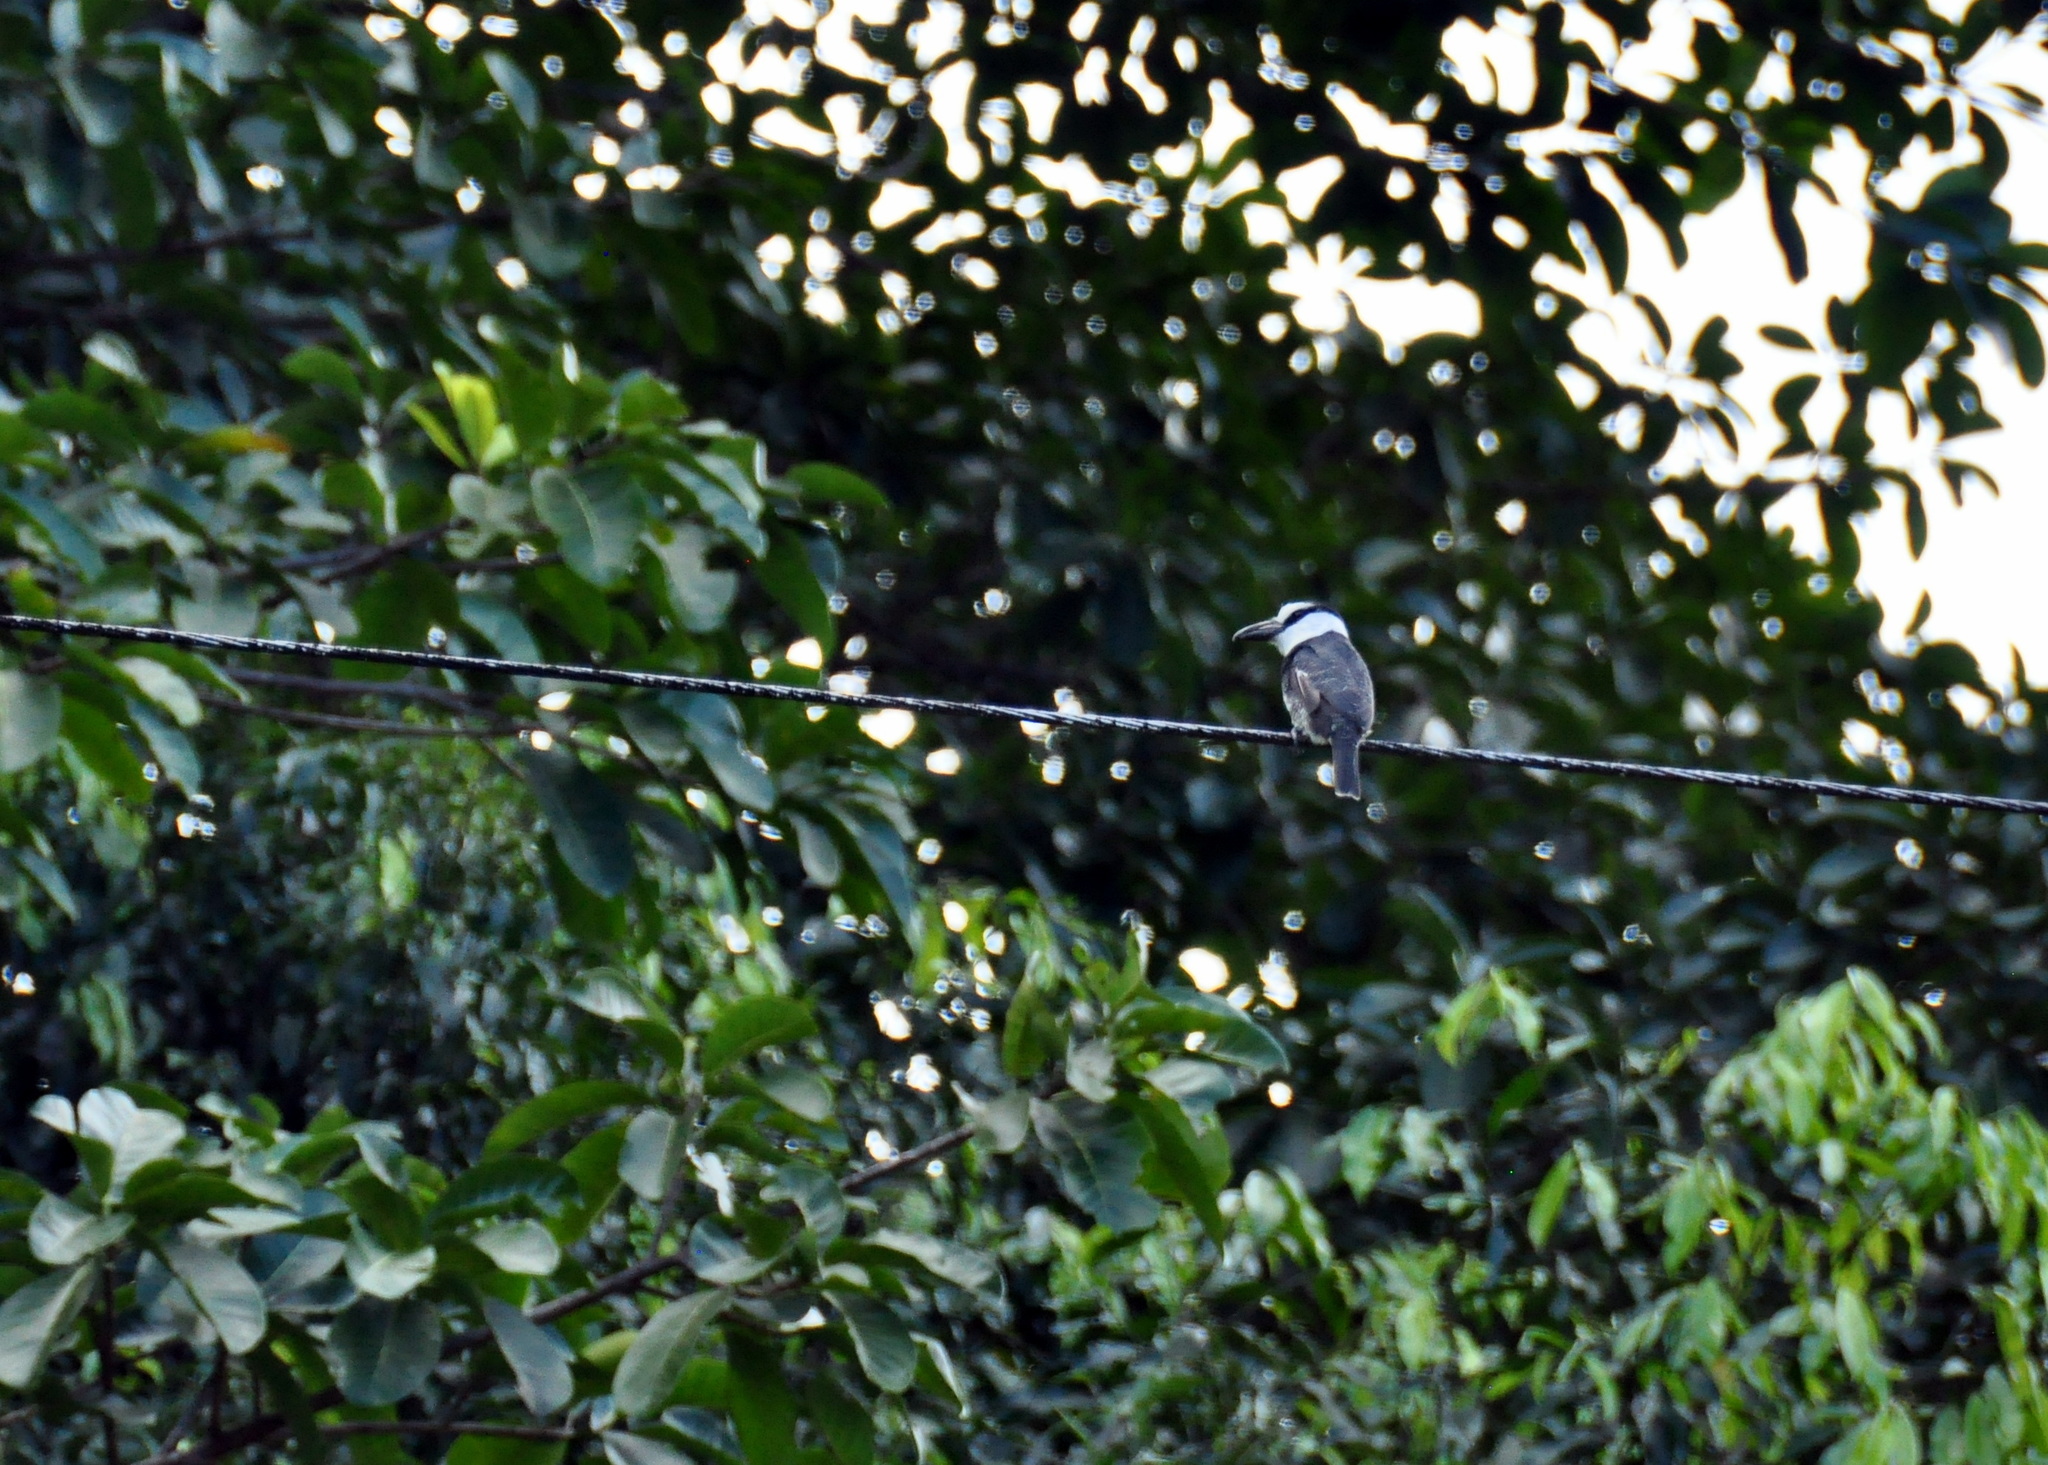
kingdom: Animalia
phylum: Chordata
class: Aves
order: Piciformes
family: Bucconidae
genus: Notharchus
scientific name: Notharchus hyperrhynchus
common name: White-necked puffbird
